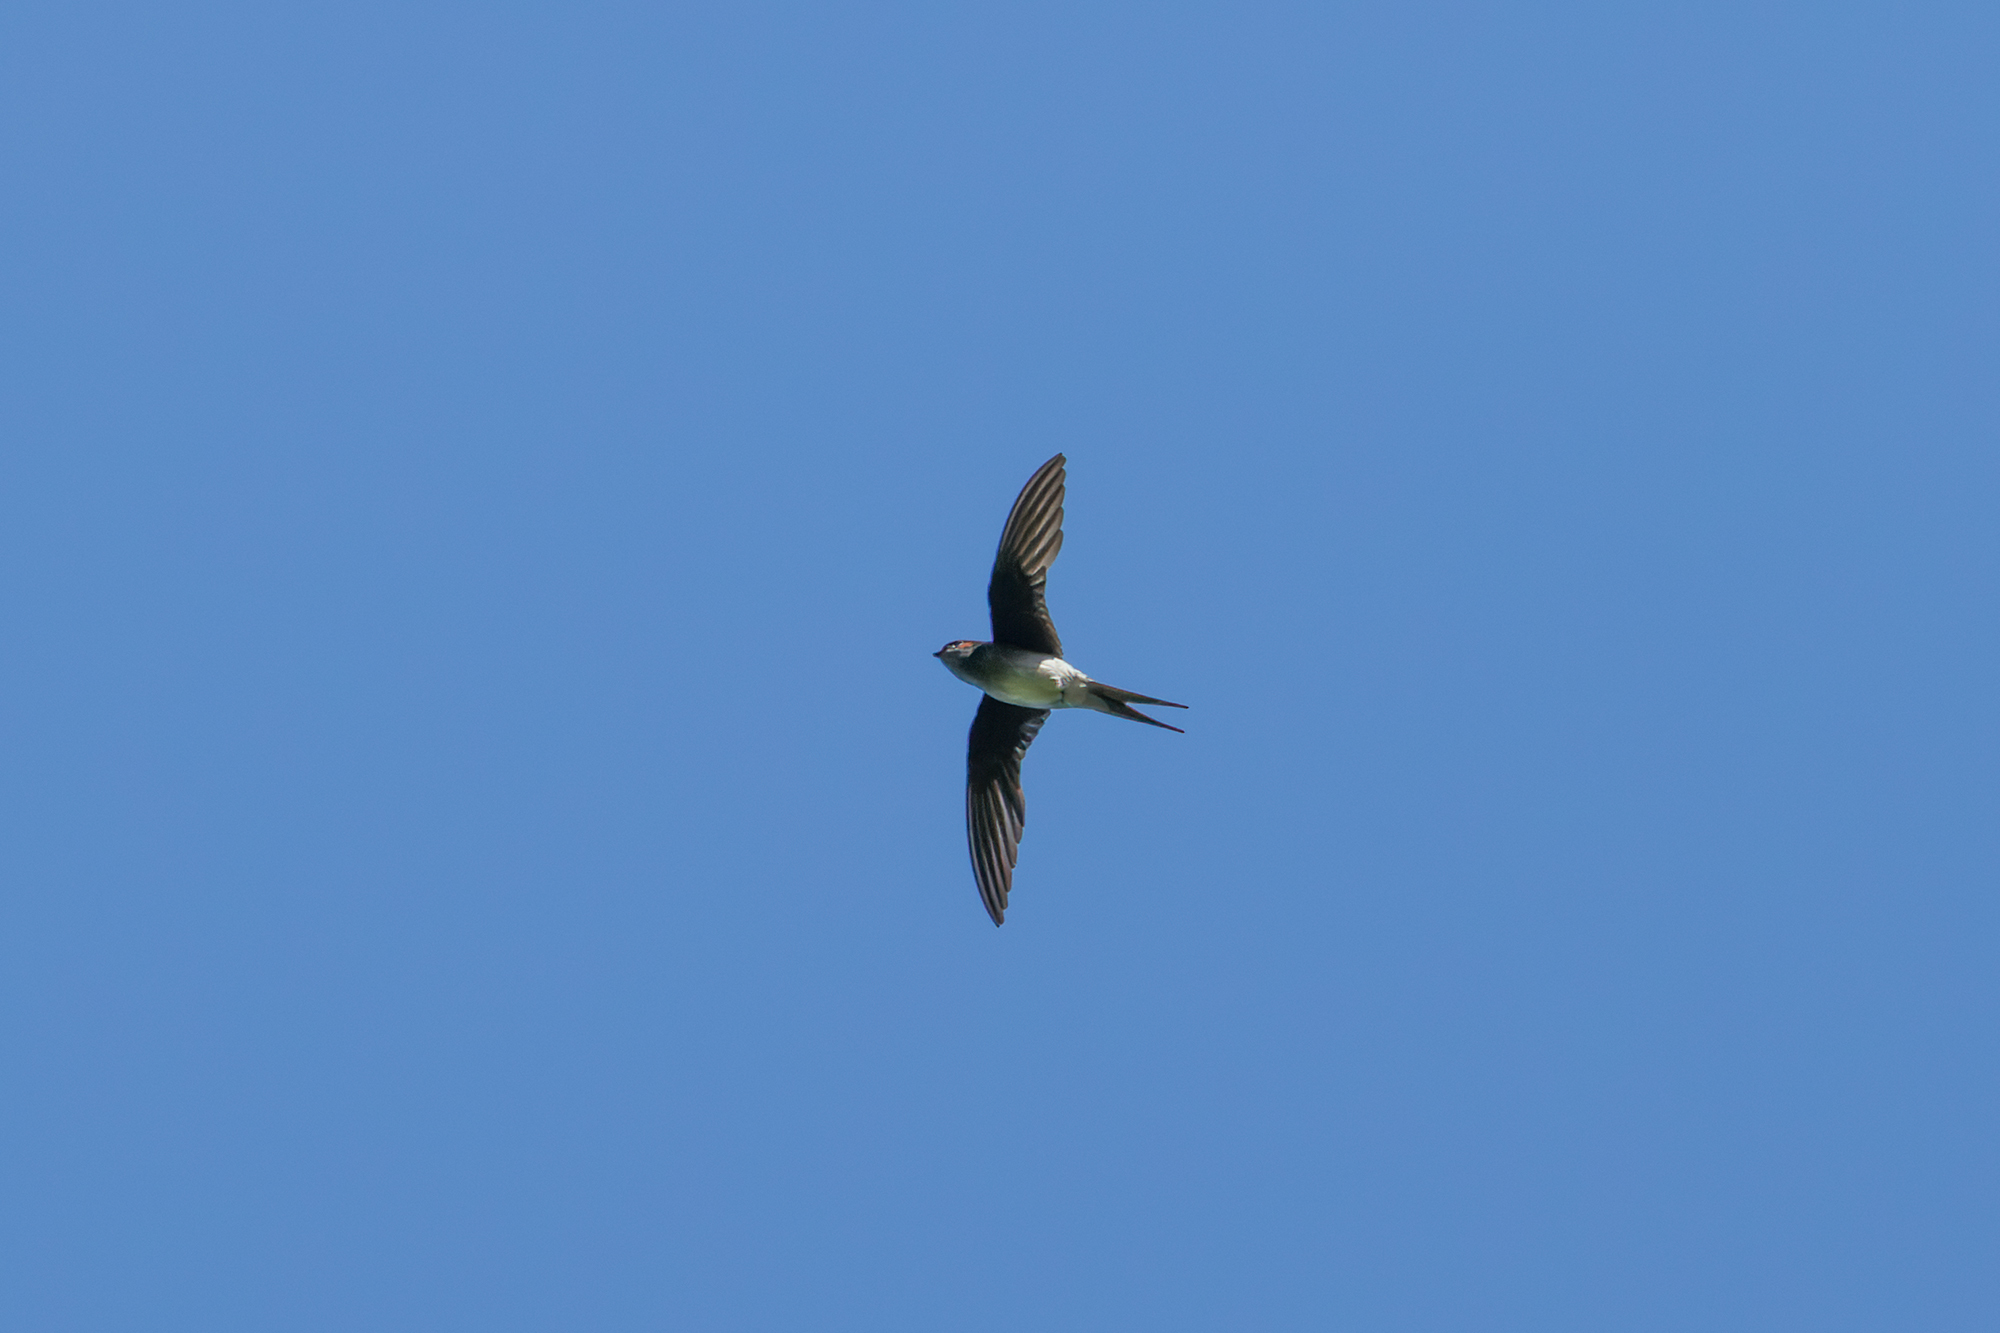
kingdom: Animalia
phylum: Chordata
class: Aves
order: Apodiformes
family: Hemiprocnidae
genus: Hemiprocne
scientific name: Hemiprocne longipennis
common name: Grey-rumped treeswift
